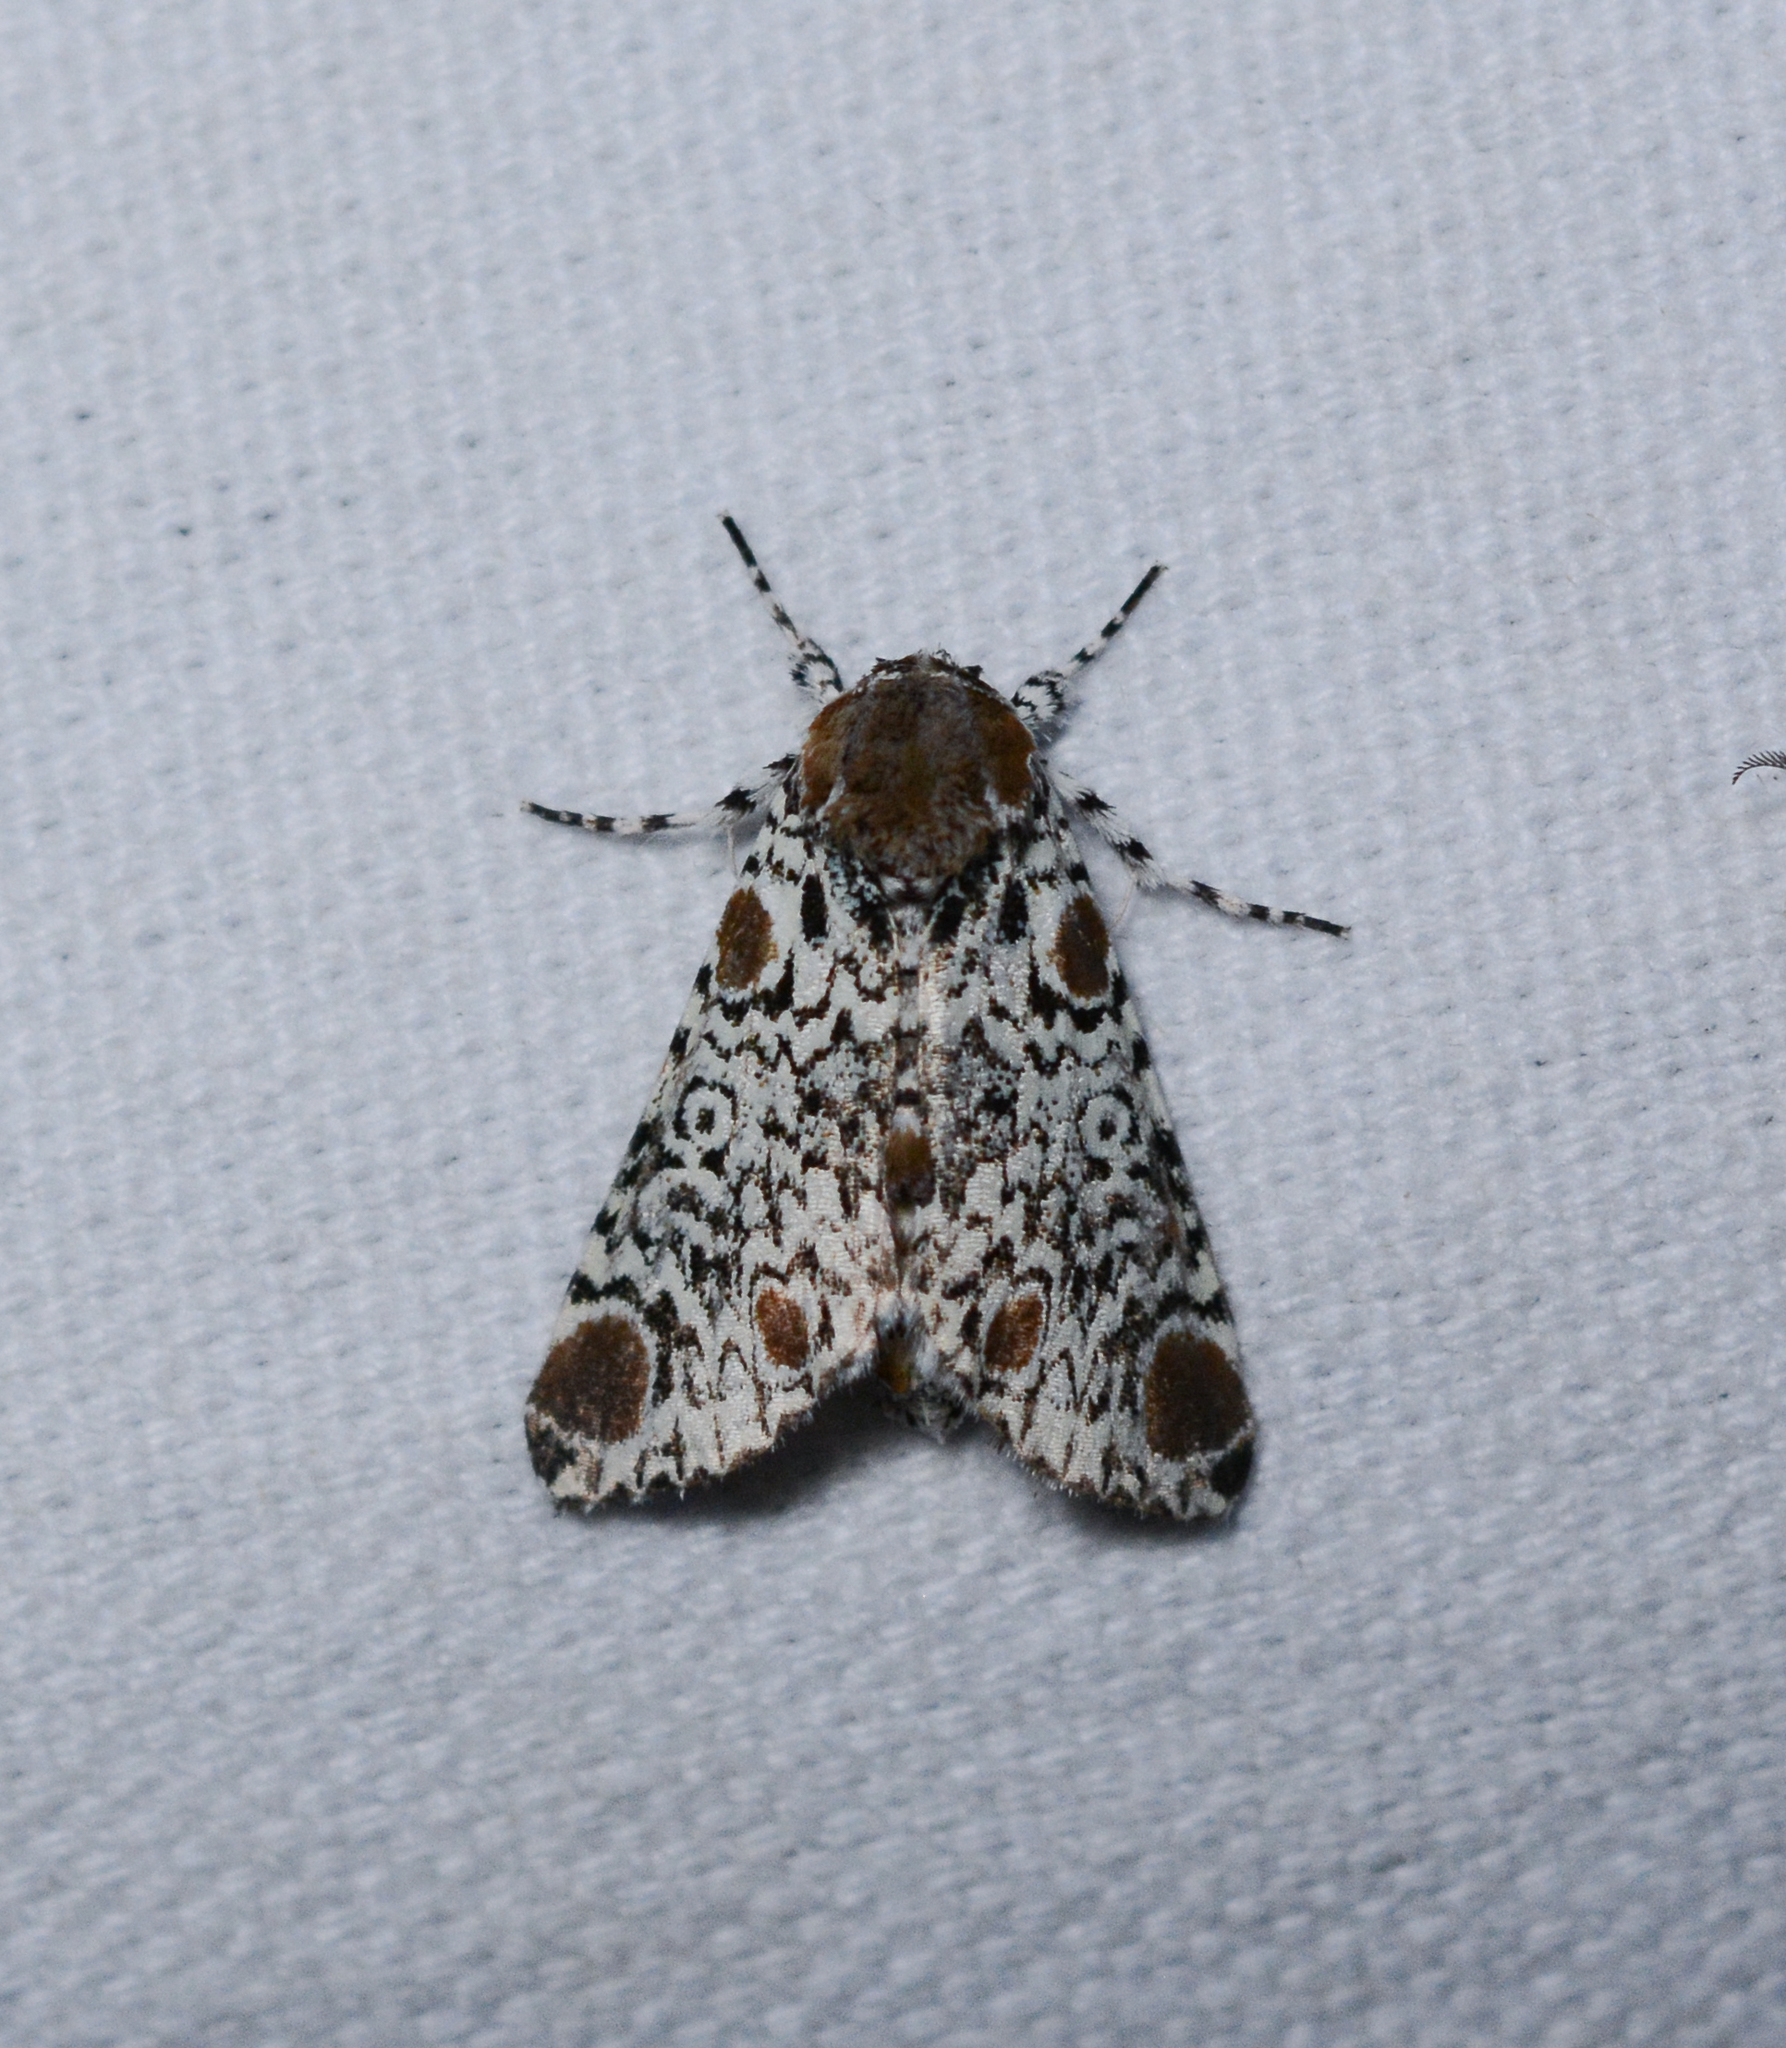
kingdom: Animalia
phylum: Arthropoda
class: Insecta
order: Lepidoptera
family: Noctuidae
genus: Harrisimemna
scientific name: Harrisimemna trisignata
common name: Harris threespot
